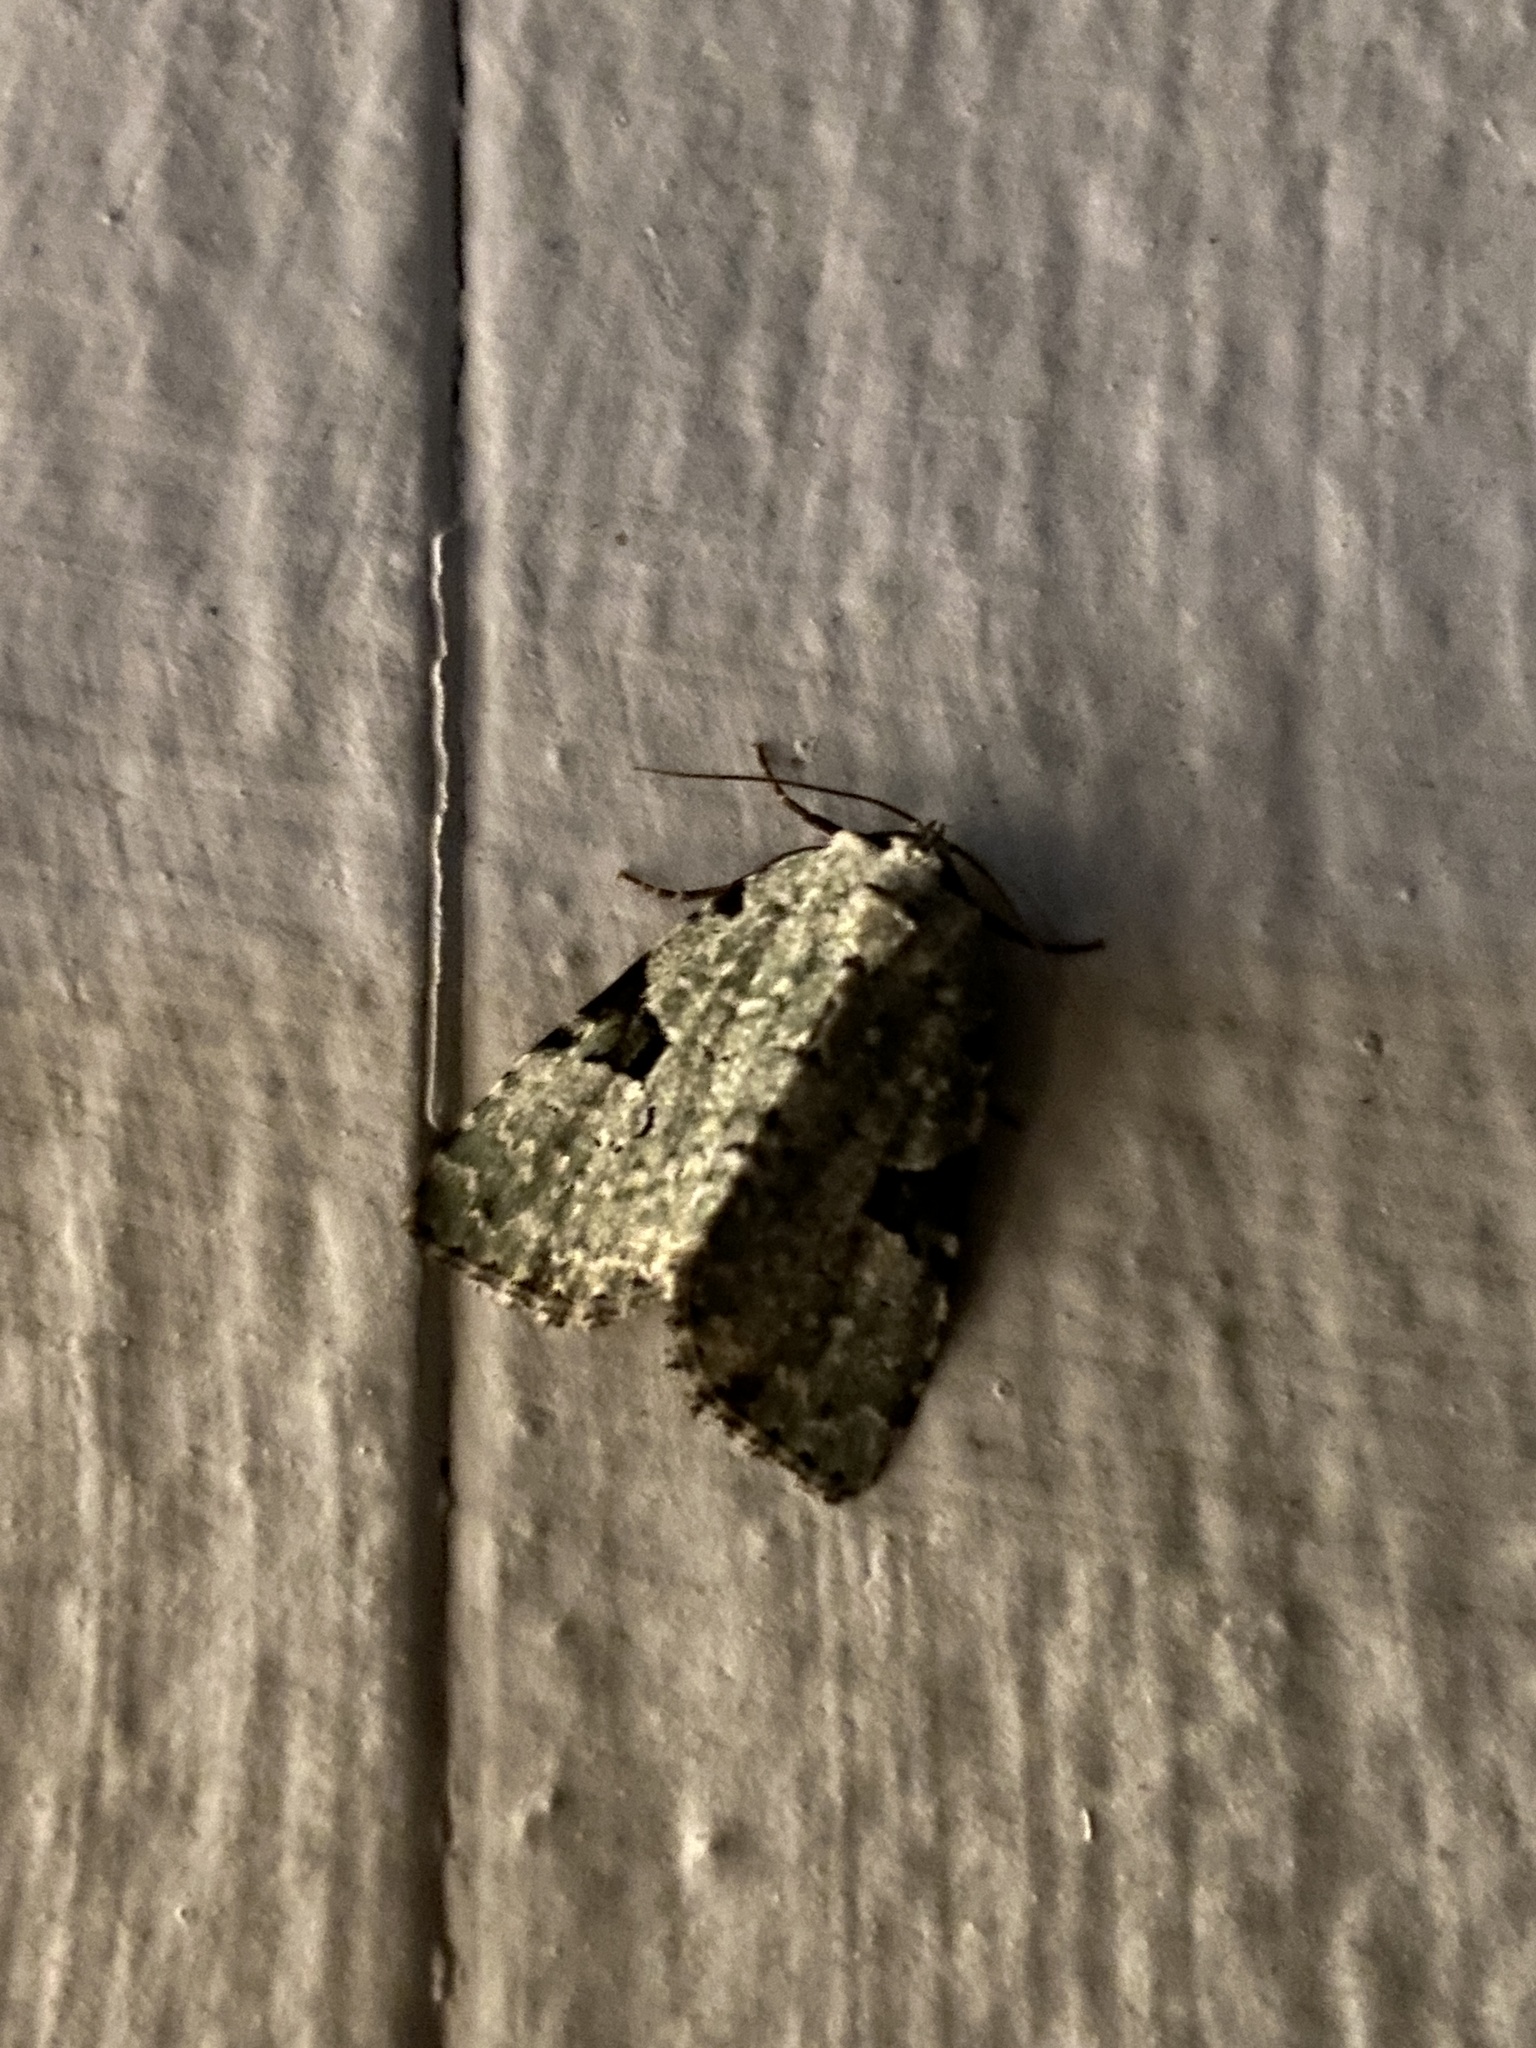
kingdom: Animalia
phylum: Arthropoda
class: Insecta
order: Lepidoptera
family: Noctuidae
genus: Leuconycta
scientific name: Leuconycta diphteroides
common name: Green leuconycta moth
